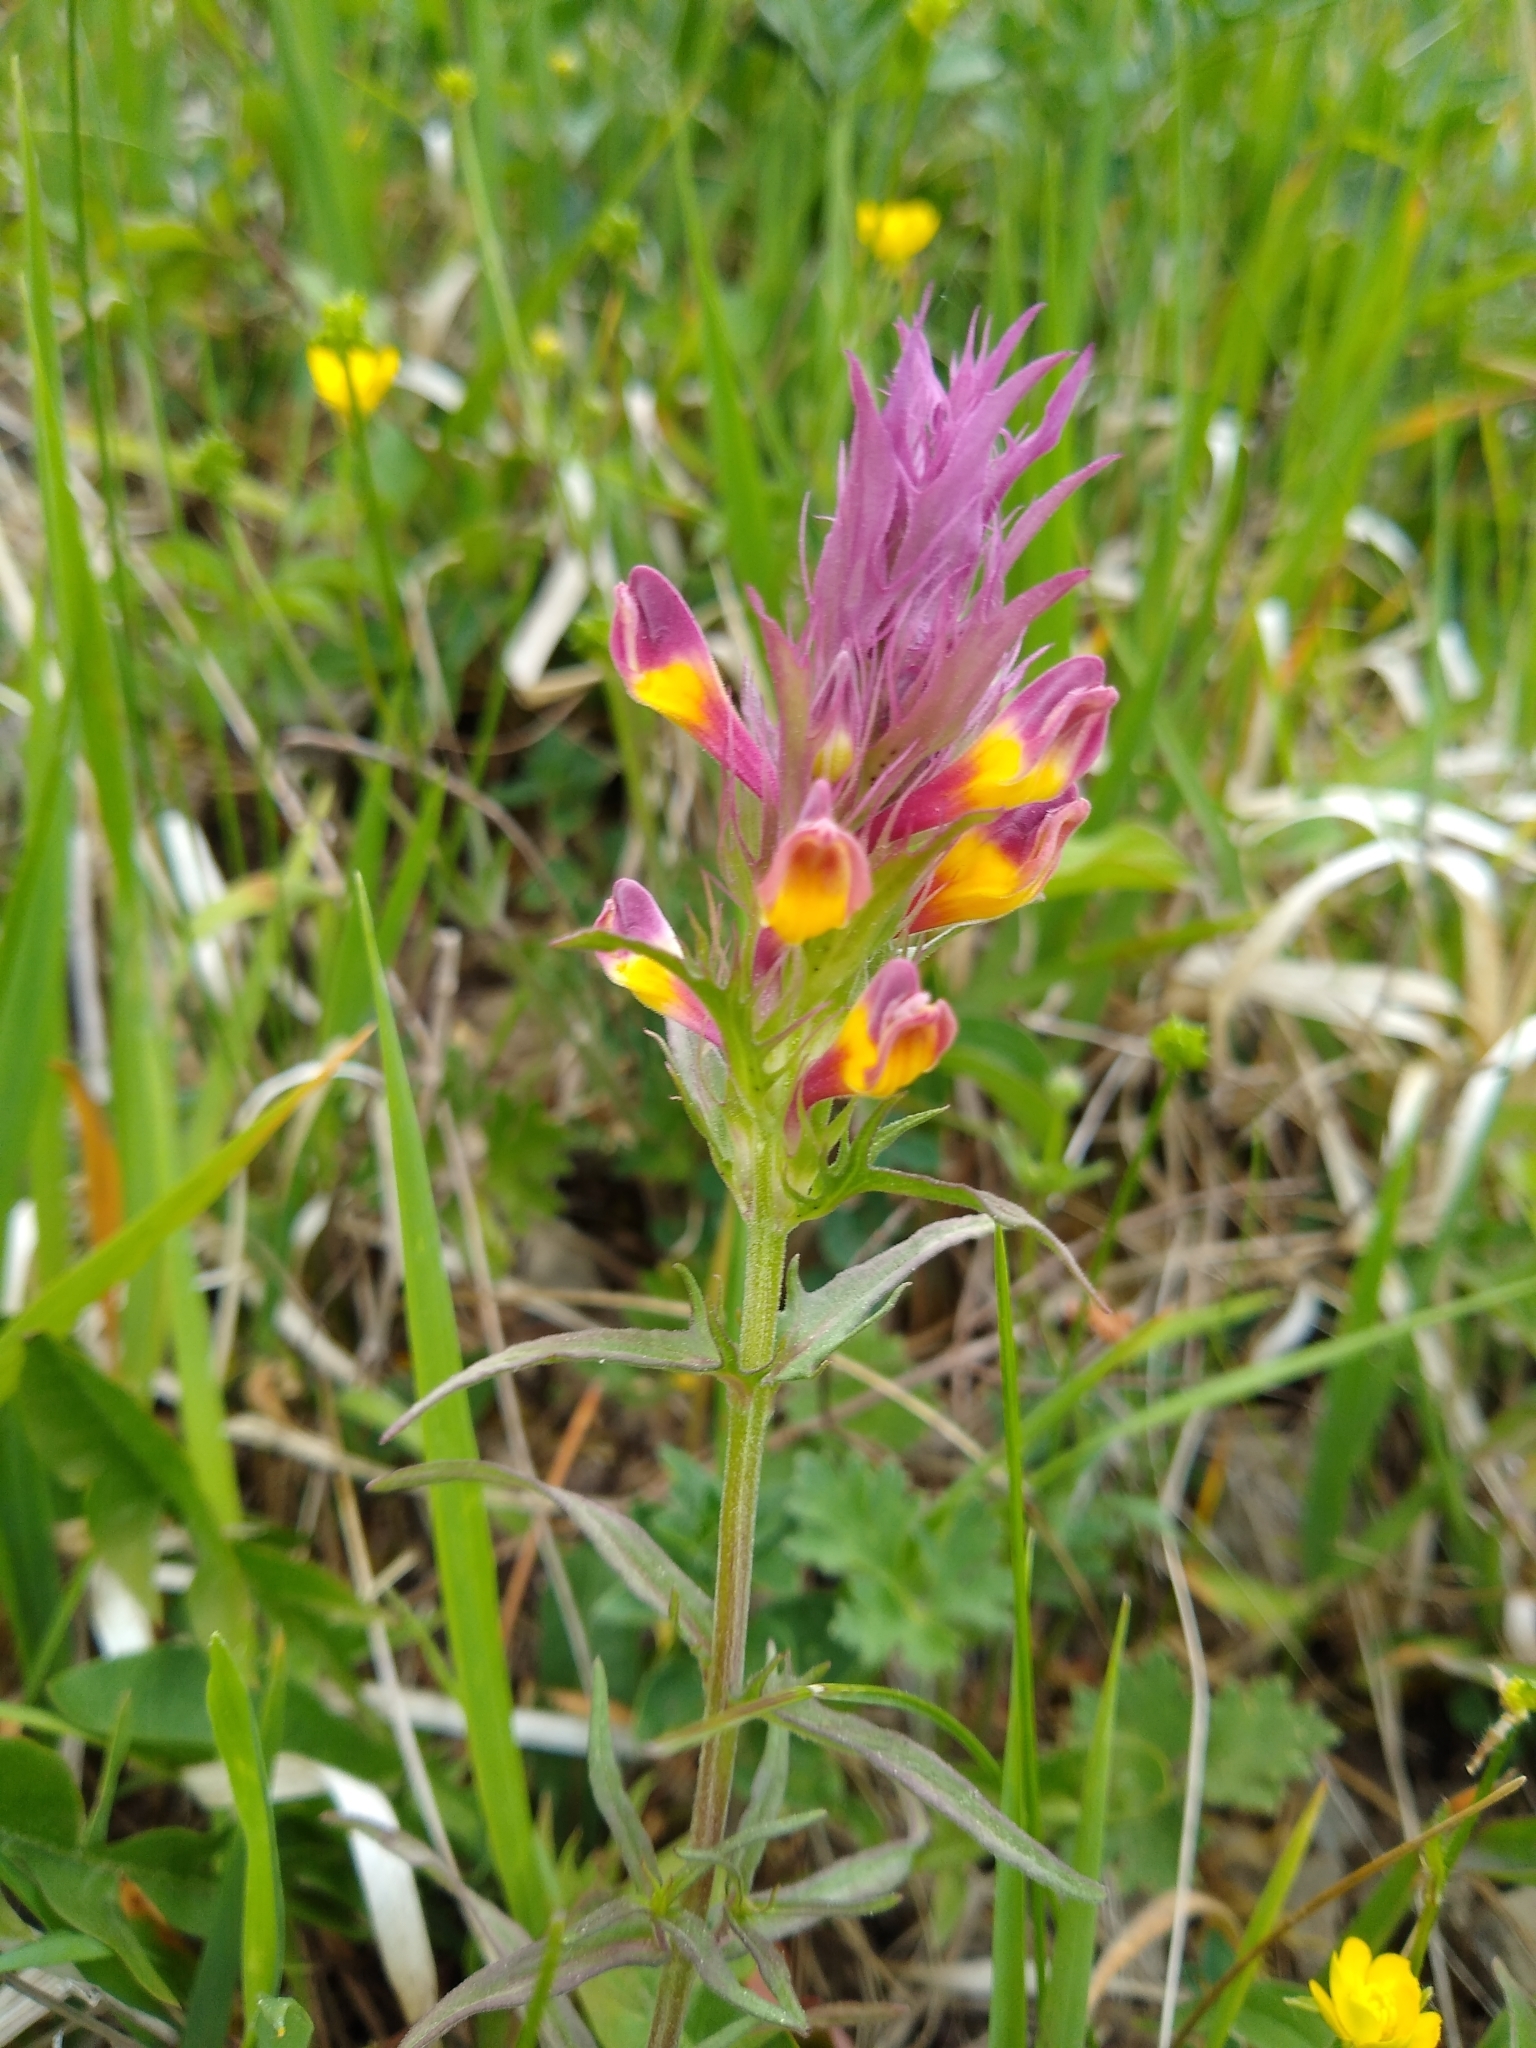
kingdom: Plantae
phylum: Tracheophyta
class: Magnoliopsida
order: Lamiales
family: Orobanchaceae
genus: Melampyrum
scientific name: Melampyrum arvense
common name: Field cow-wheat
